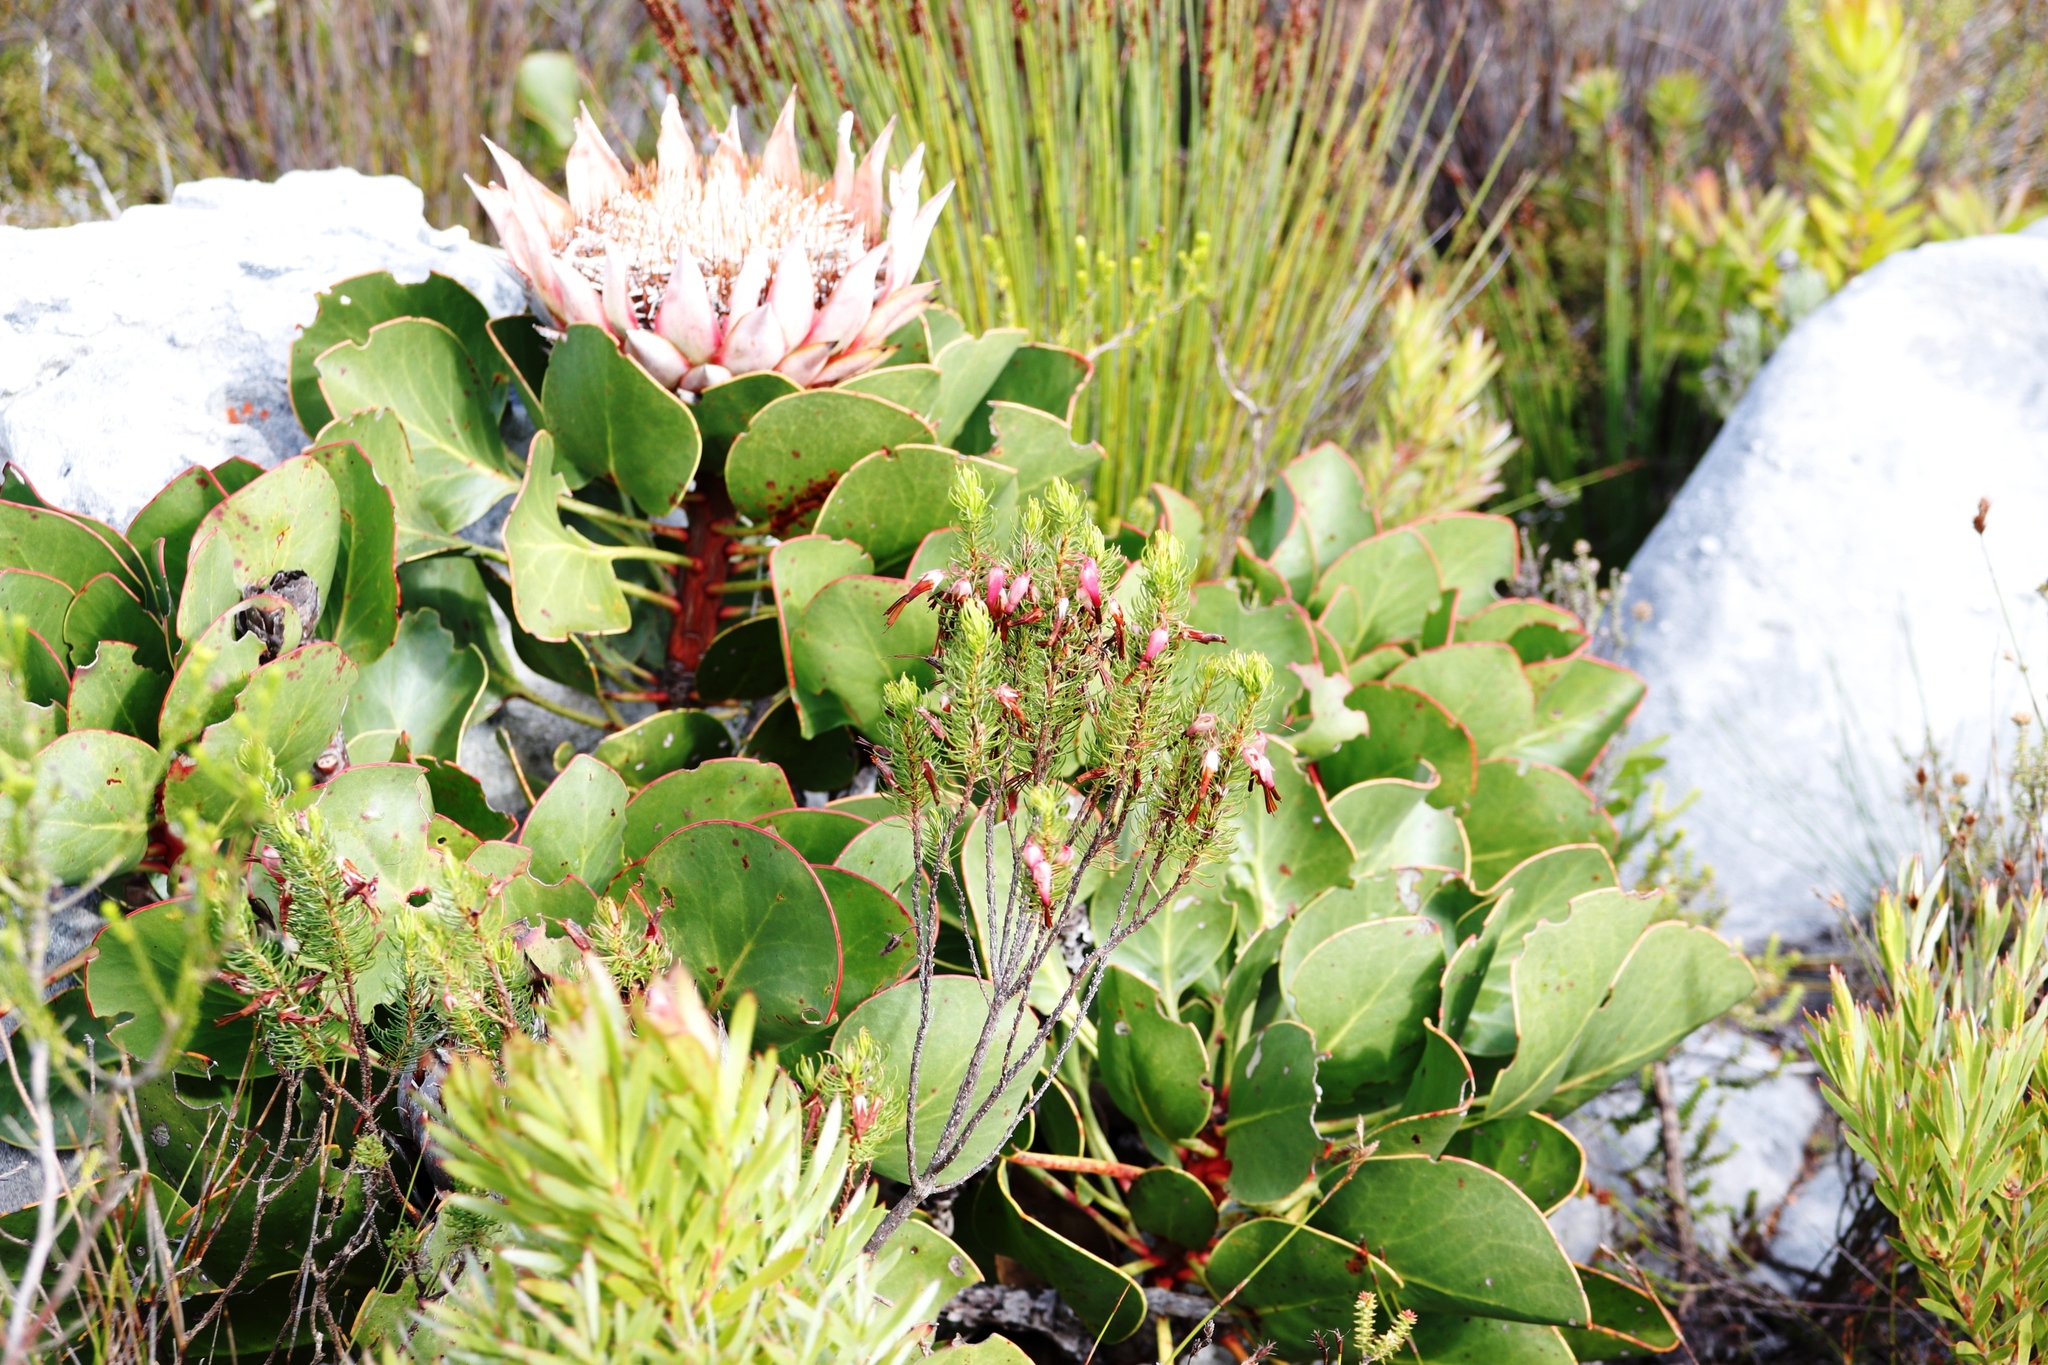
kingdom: Plantae
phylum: Tracheophyta
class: Magnoliopsida
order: Ericales
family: Ericaceae
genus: Erica
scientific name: Erica plukenetii
